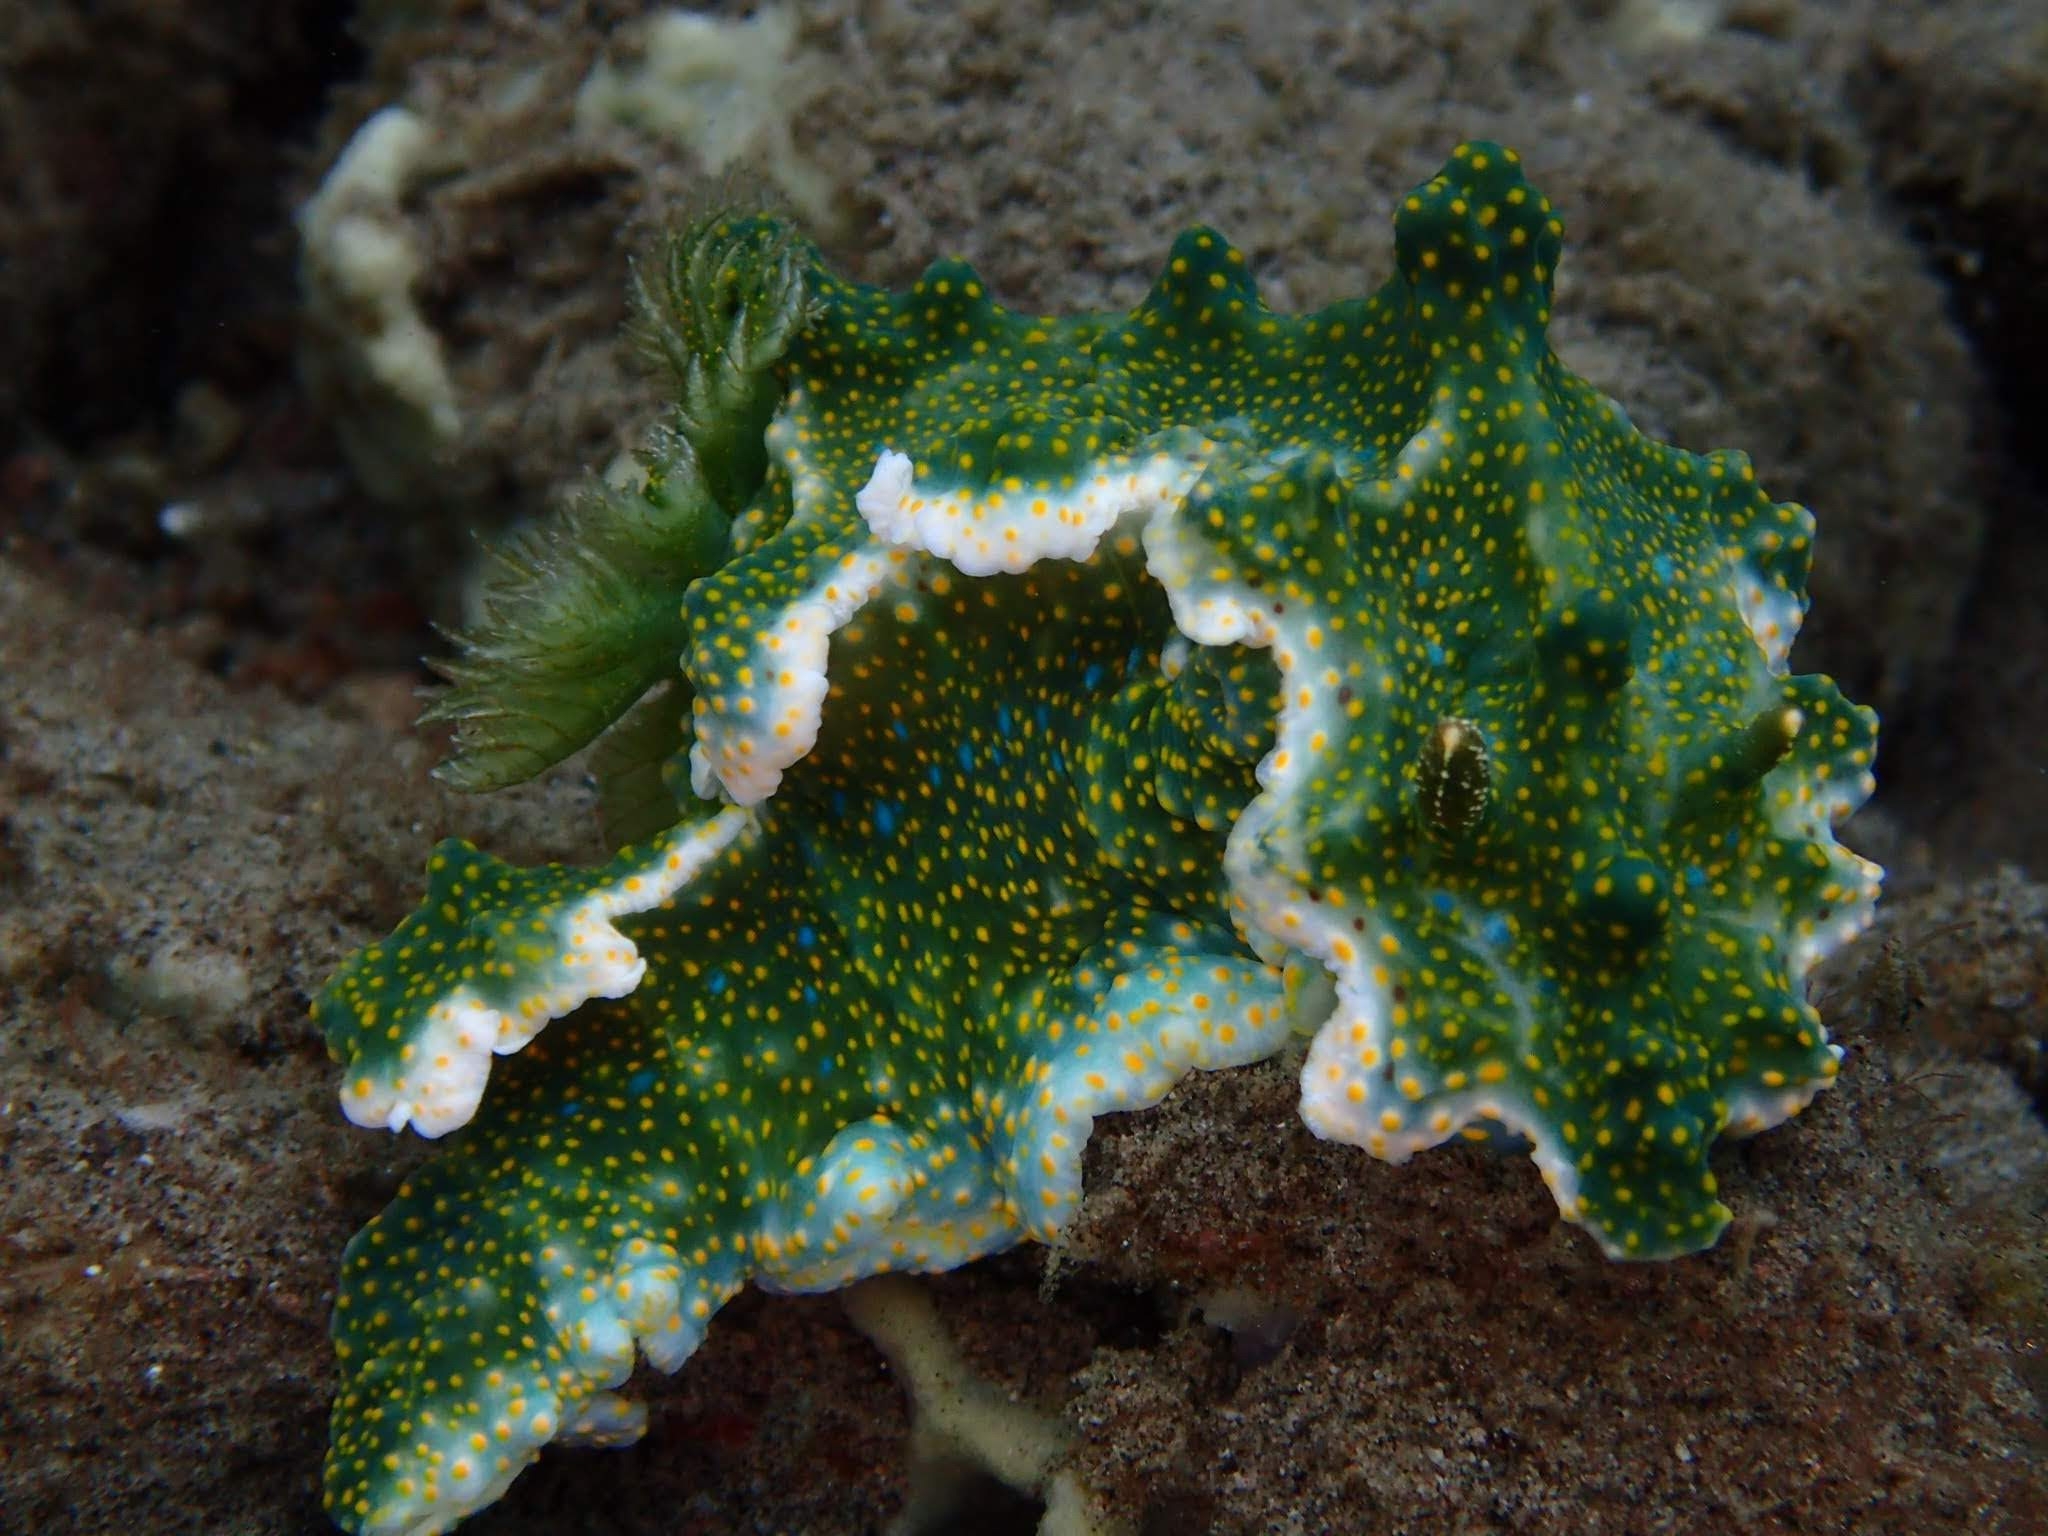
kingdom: Animalia
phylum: Mollusca
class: Gastropoda
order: Nudibranchia
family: Chromodorididae
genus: Miamira
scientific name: Miamira sinuata
